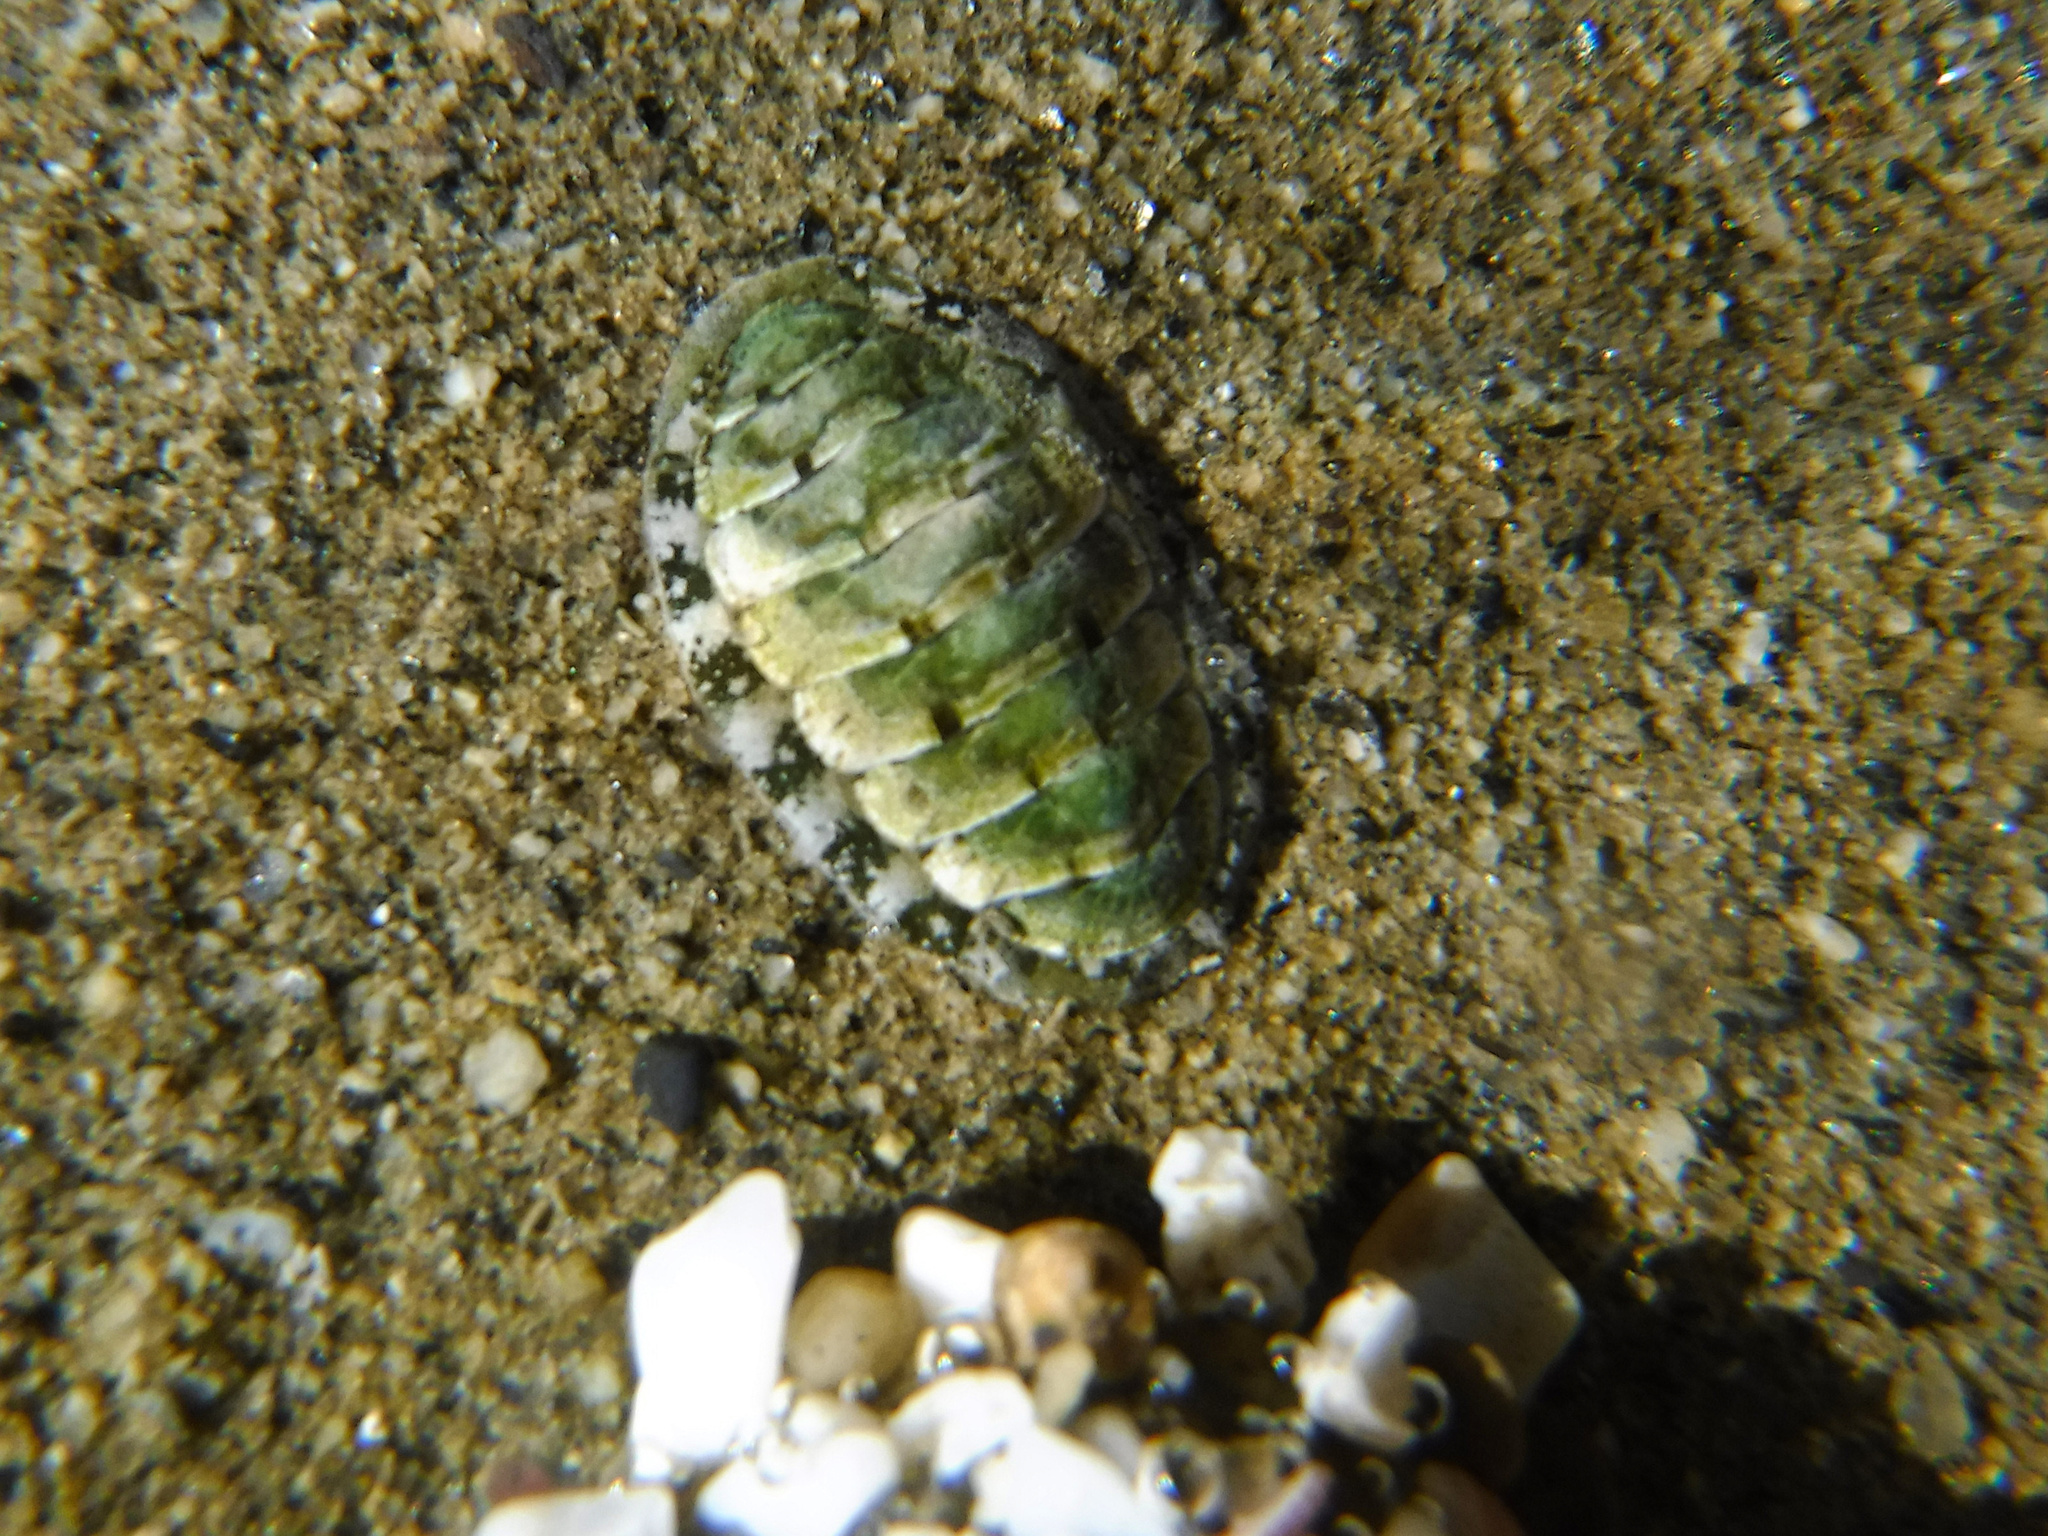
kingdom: Animalia
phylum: Mollusca
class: Polyplacophora
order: Chitonida
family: Tonicellidae
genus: Cyanoplax
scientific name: Cyanoplax hartwegii
